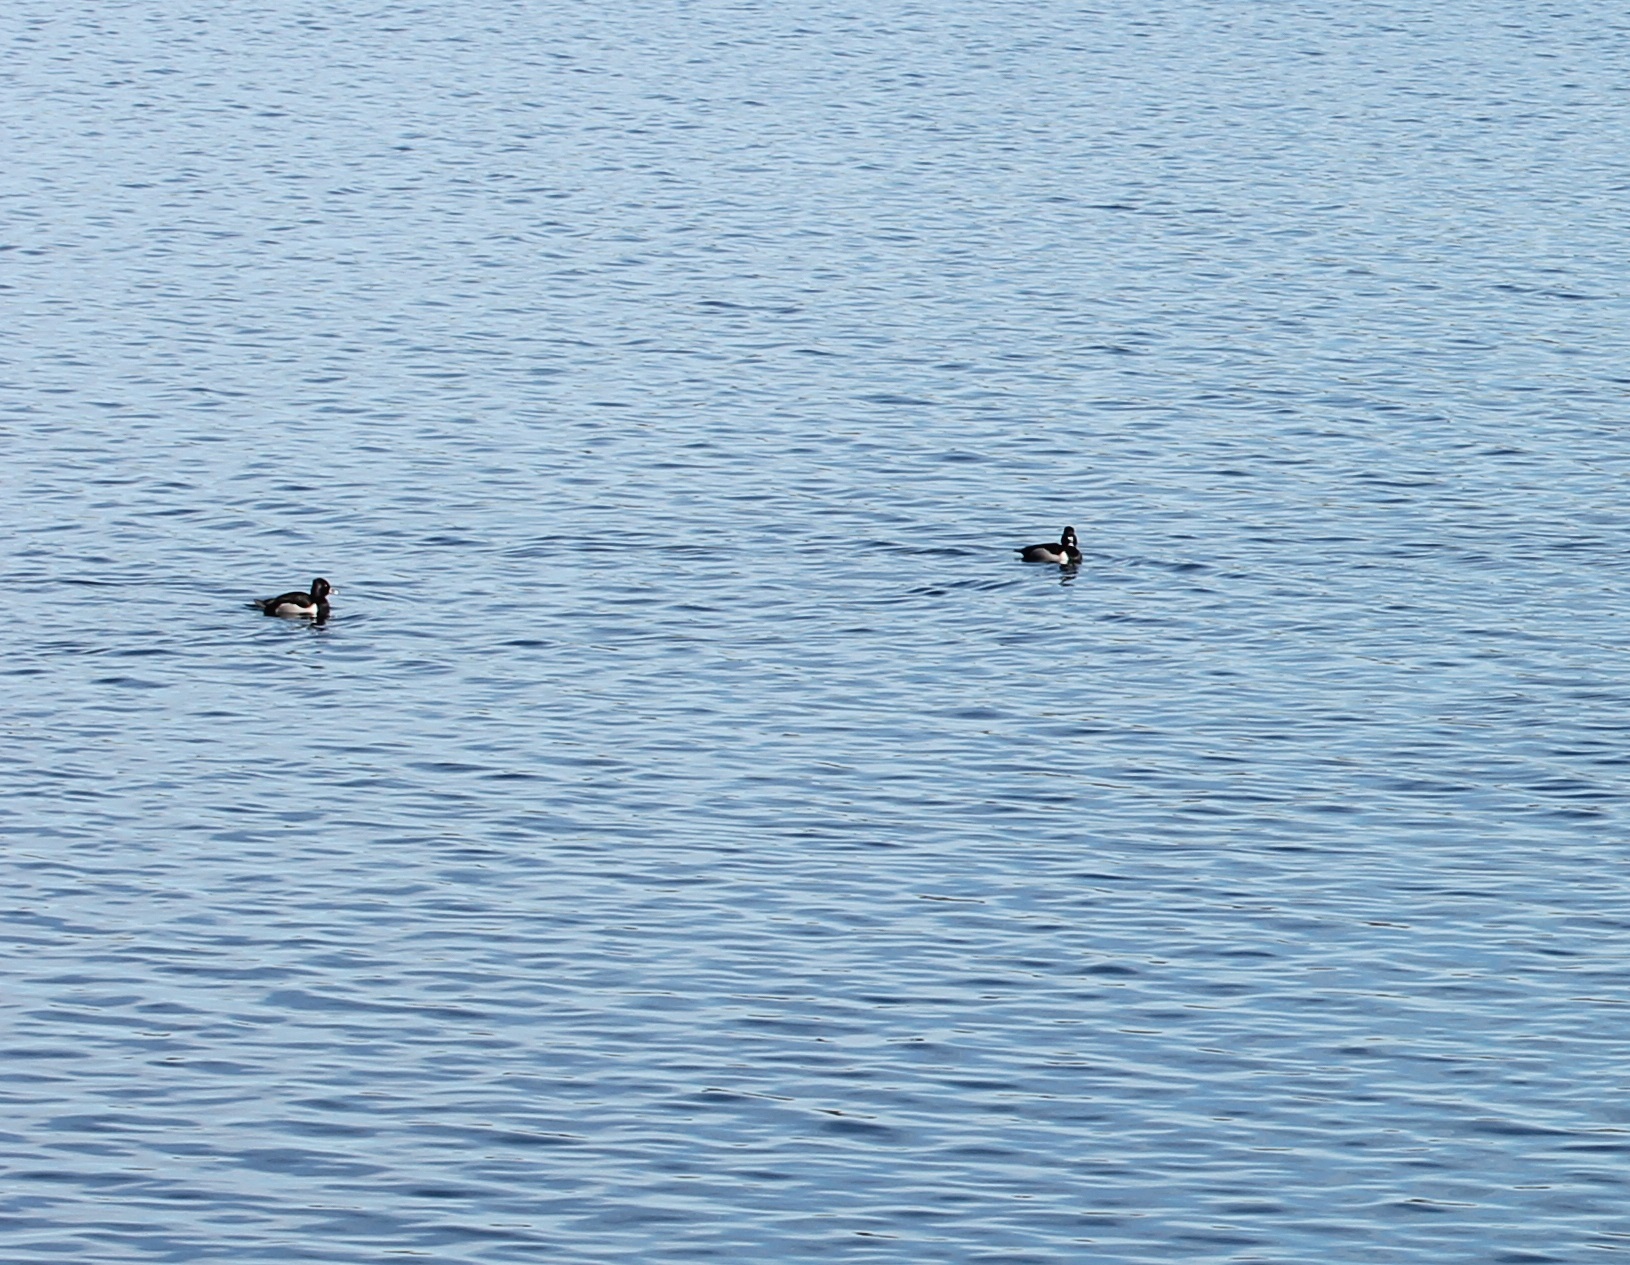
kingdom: Animalia
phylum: Chordata
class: Aves
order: Anseriformes
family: Anatidae
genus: Aythya
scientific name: Aythya collaris
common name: Ring-necked duck
